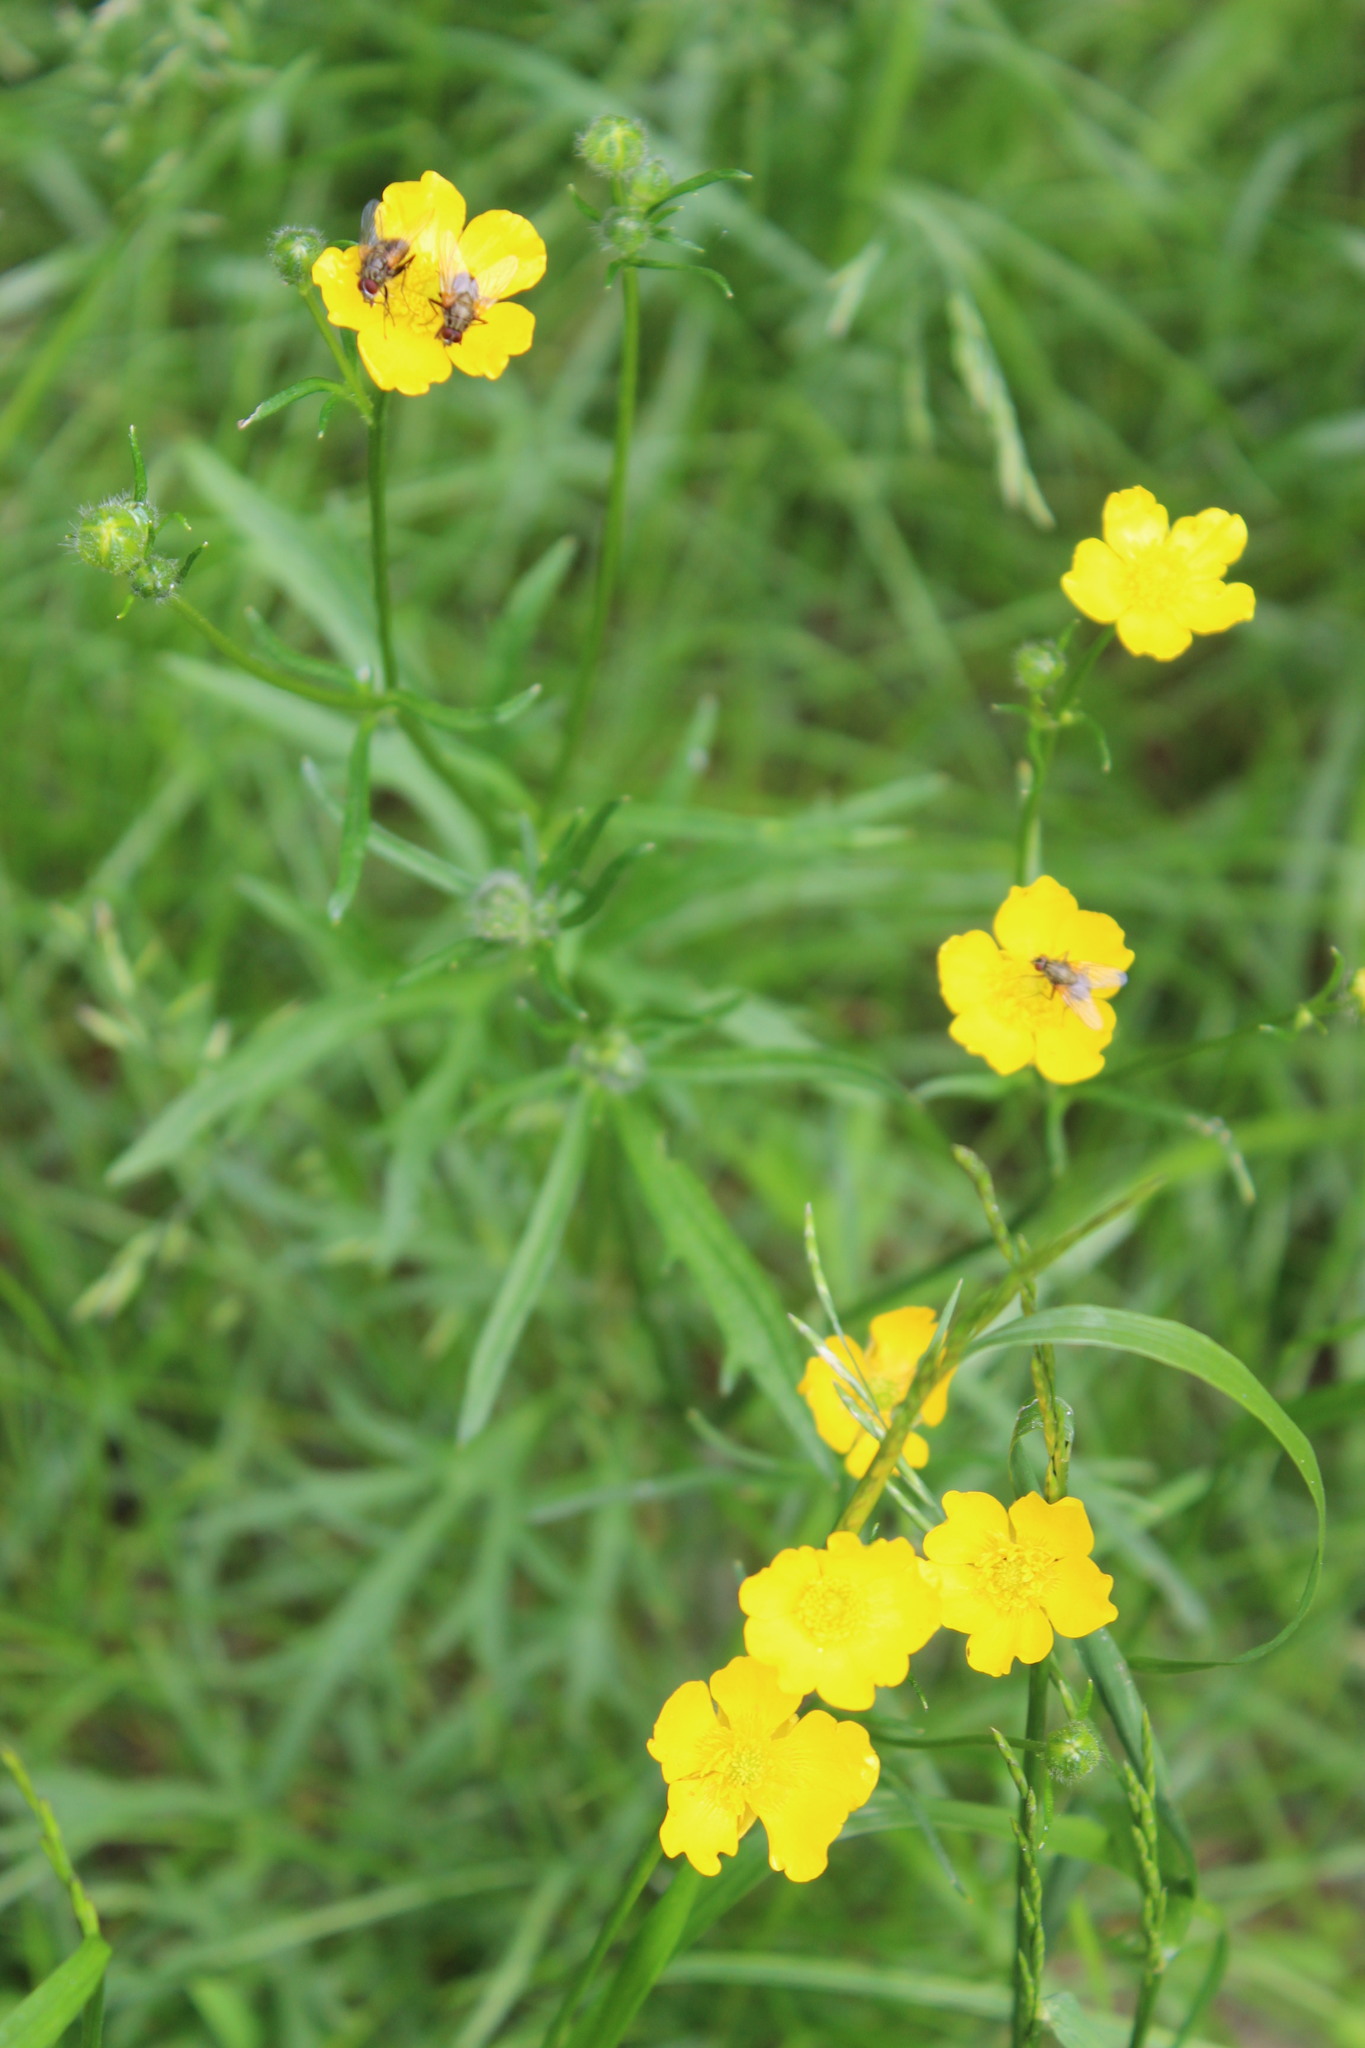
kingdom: Plantae
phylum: Tracheophyta
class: Magnoliopsida
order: Ranunculales
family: Ranunculaceae
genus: Ranunculus
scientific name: Ranunculus polyanthemos
